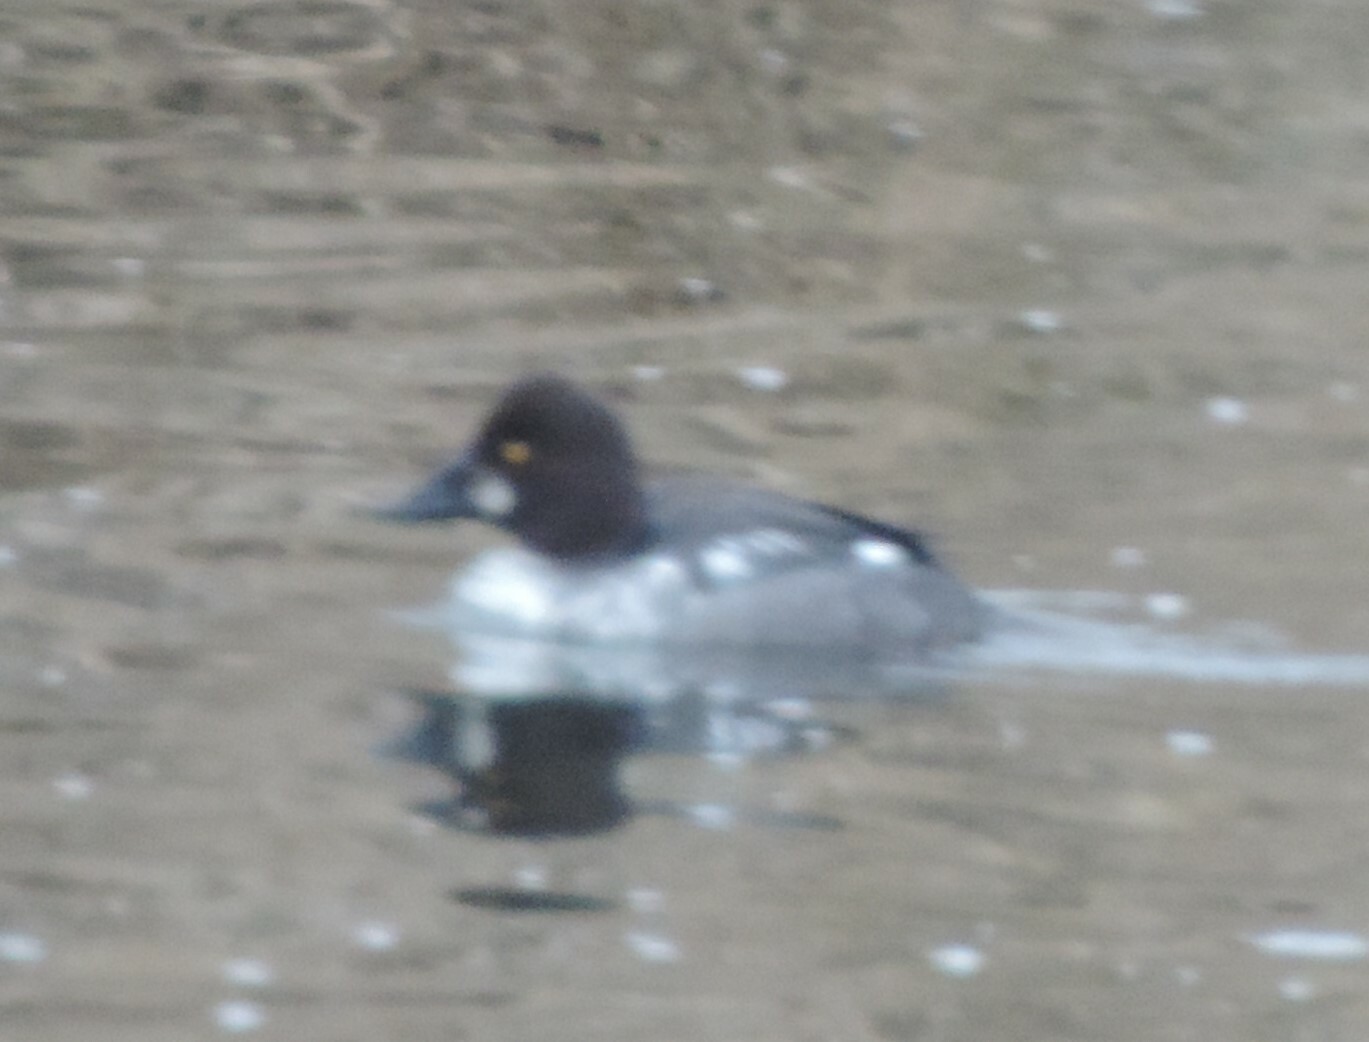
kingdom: Animalia
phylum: Chordata
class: Aves
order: Anseriformes
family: Anatidae
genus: Bucephala
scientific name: Bucephala clangula
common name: Common goldeneye
